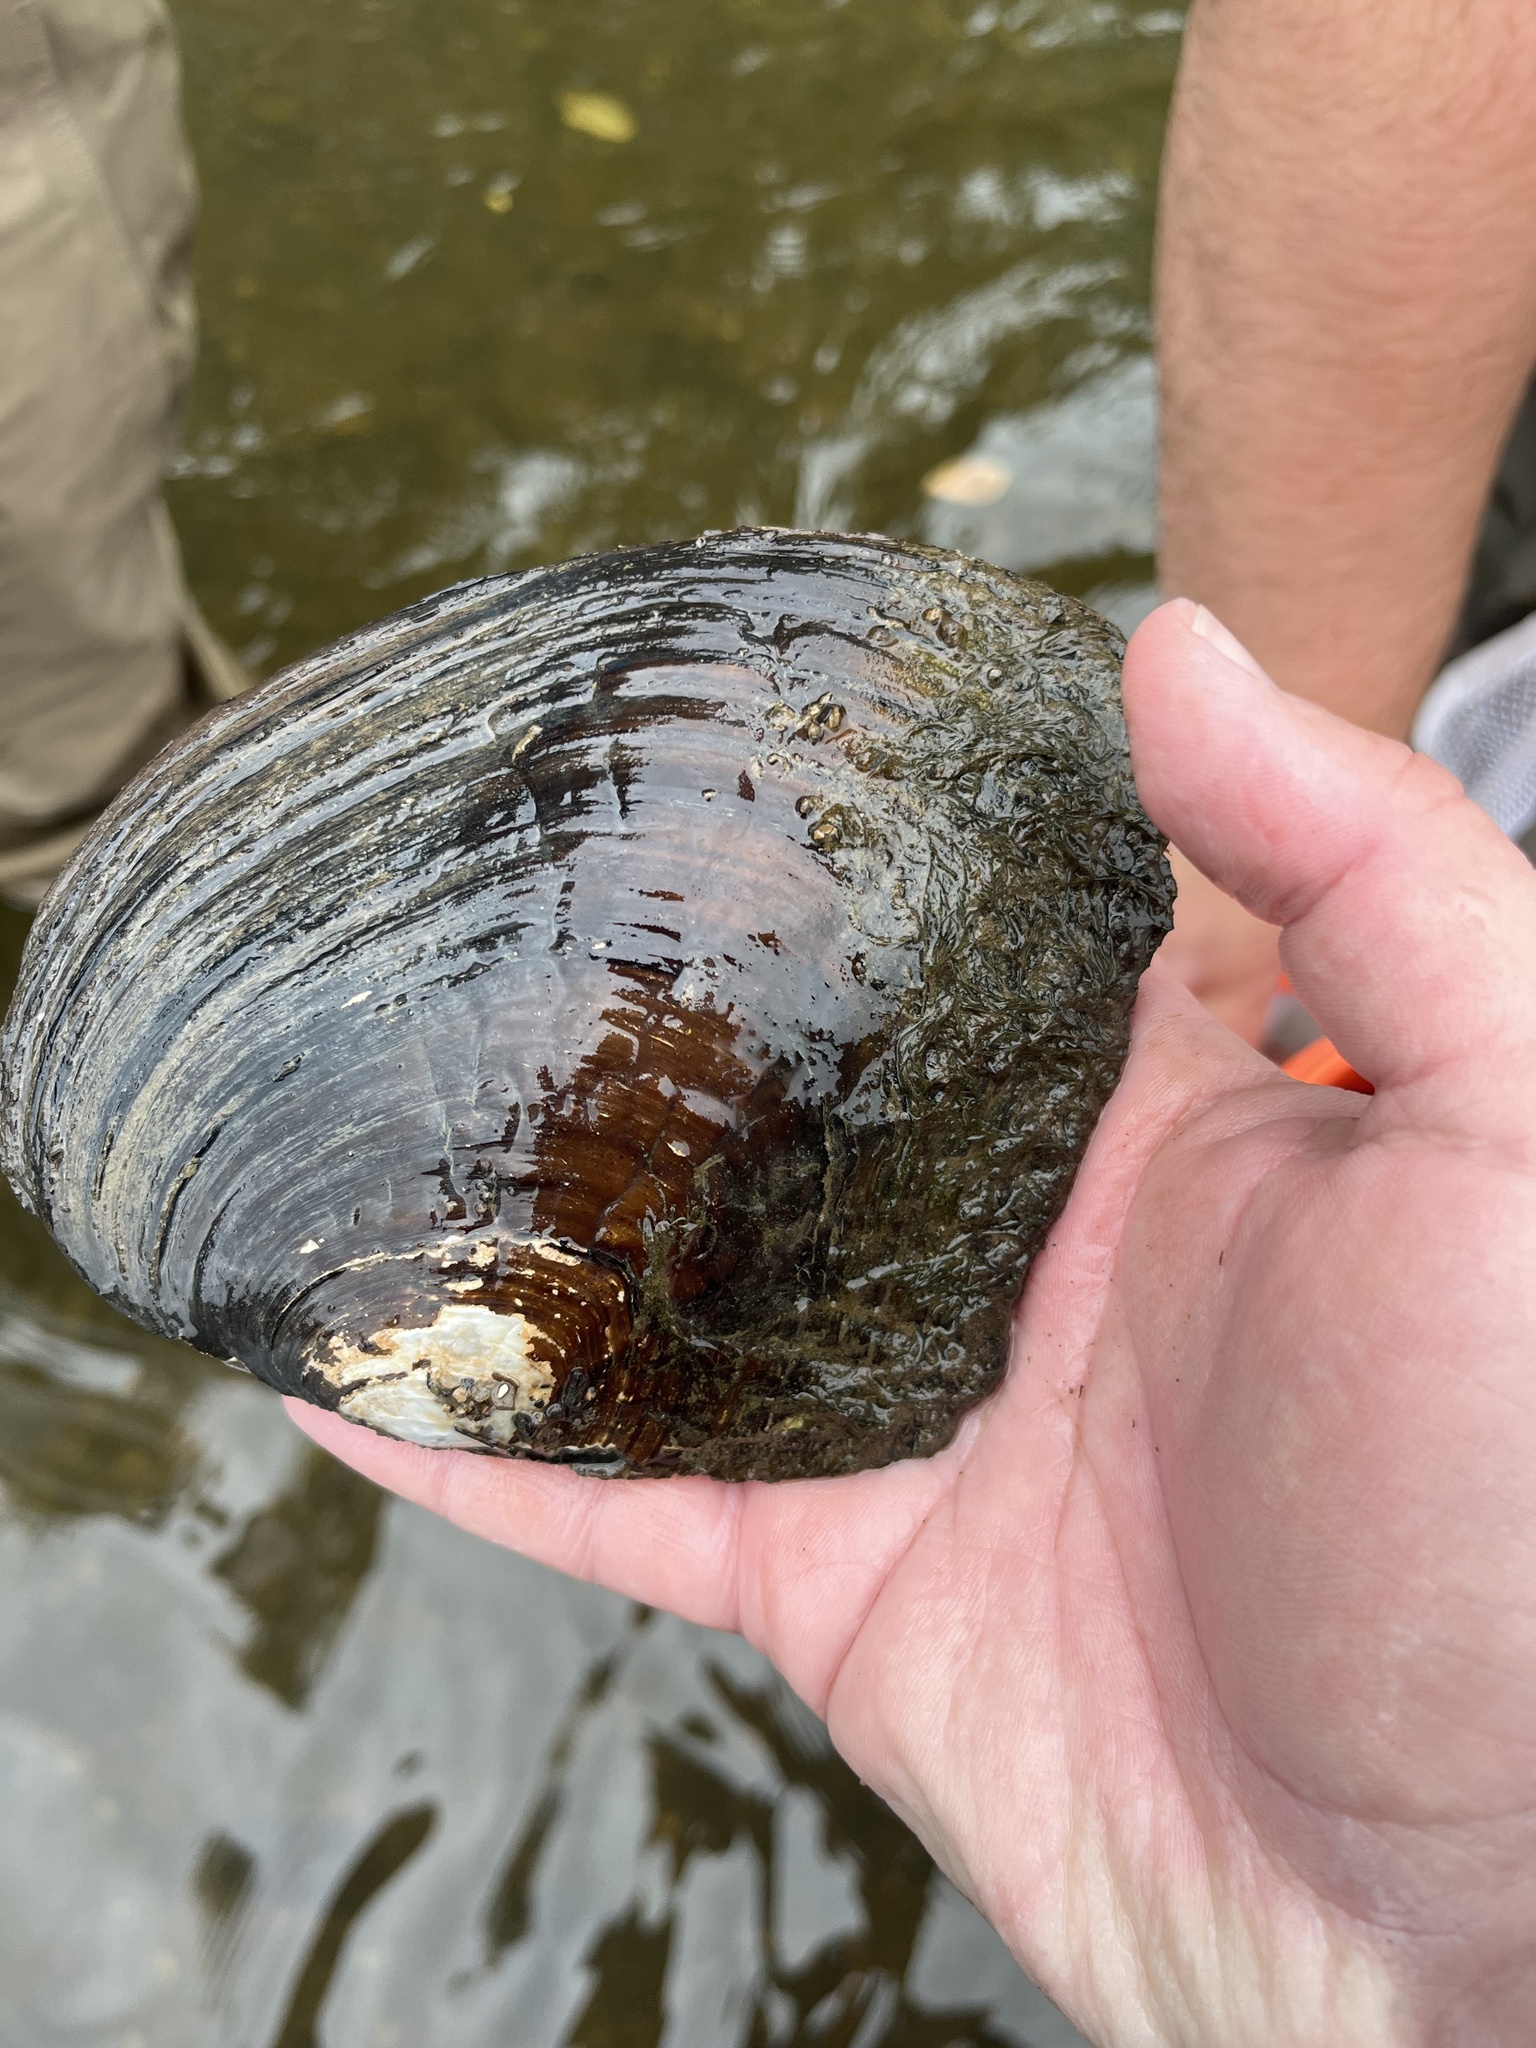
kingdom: Animalia
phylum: Mollusca
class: Bivalvia
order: Unionida
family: Unionidae
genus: Lasmigona
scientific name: Lasmigona complanata
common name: White heelsplitter
